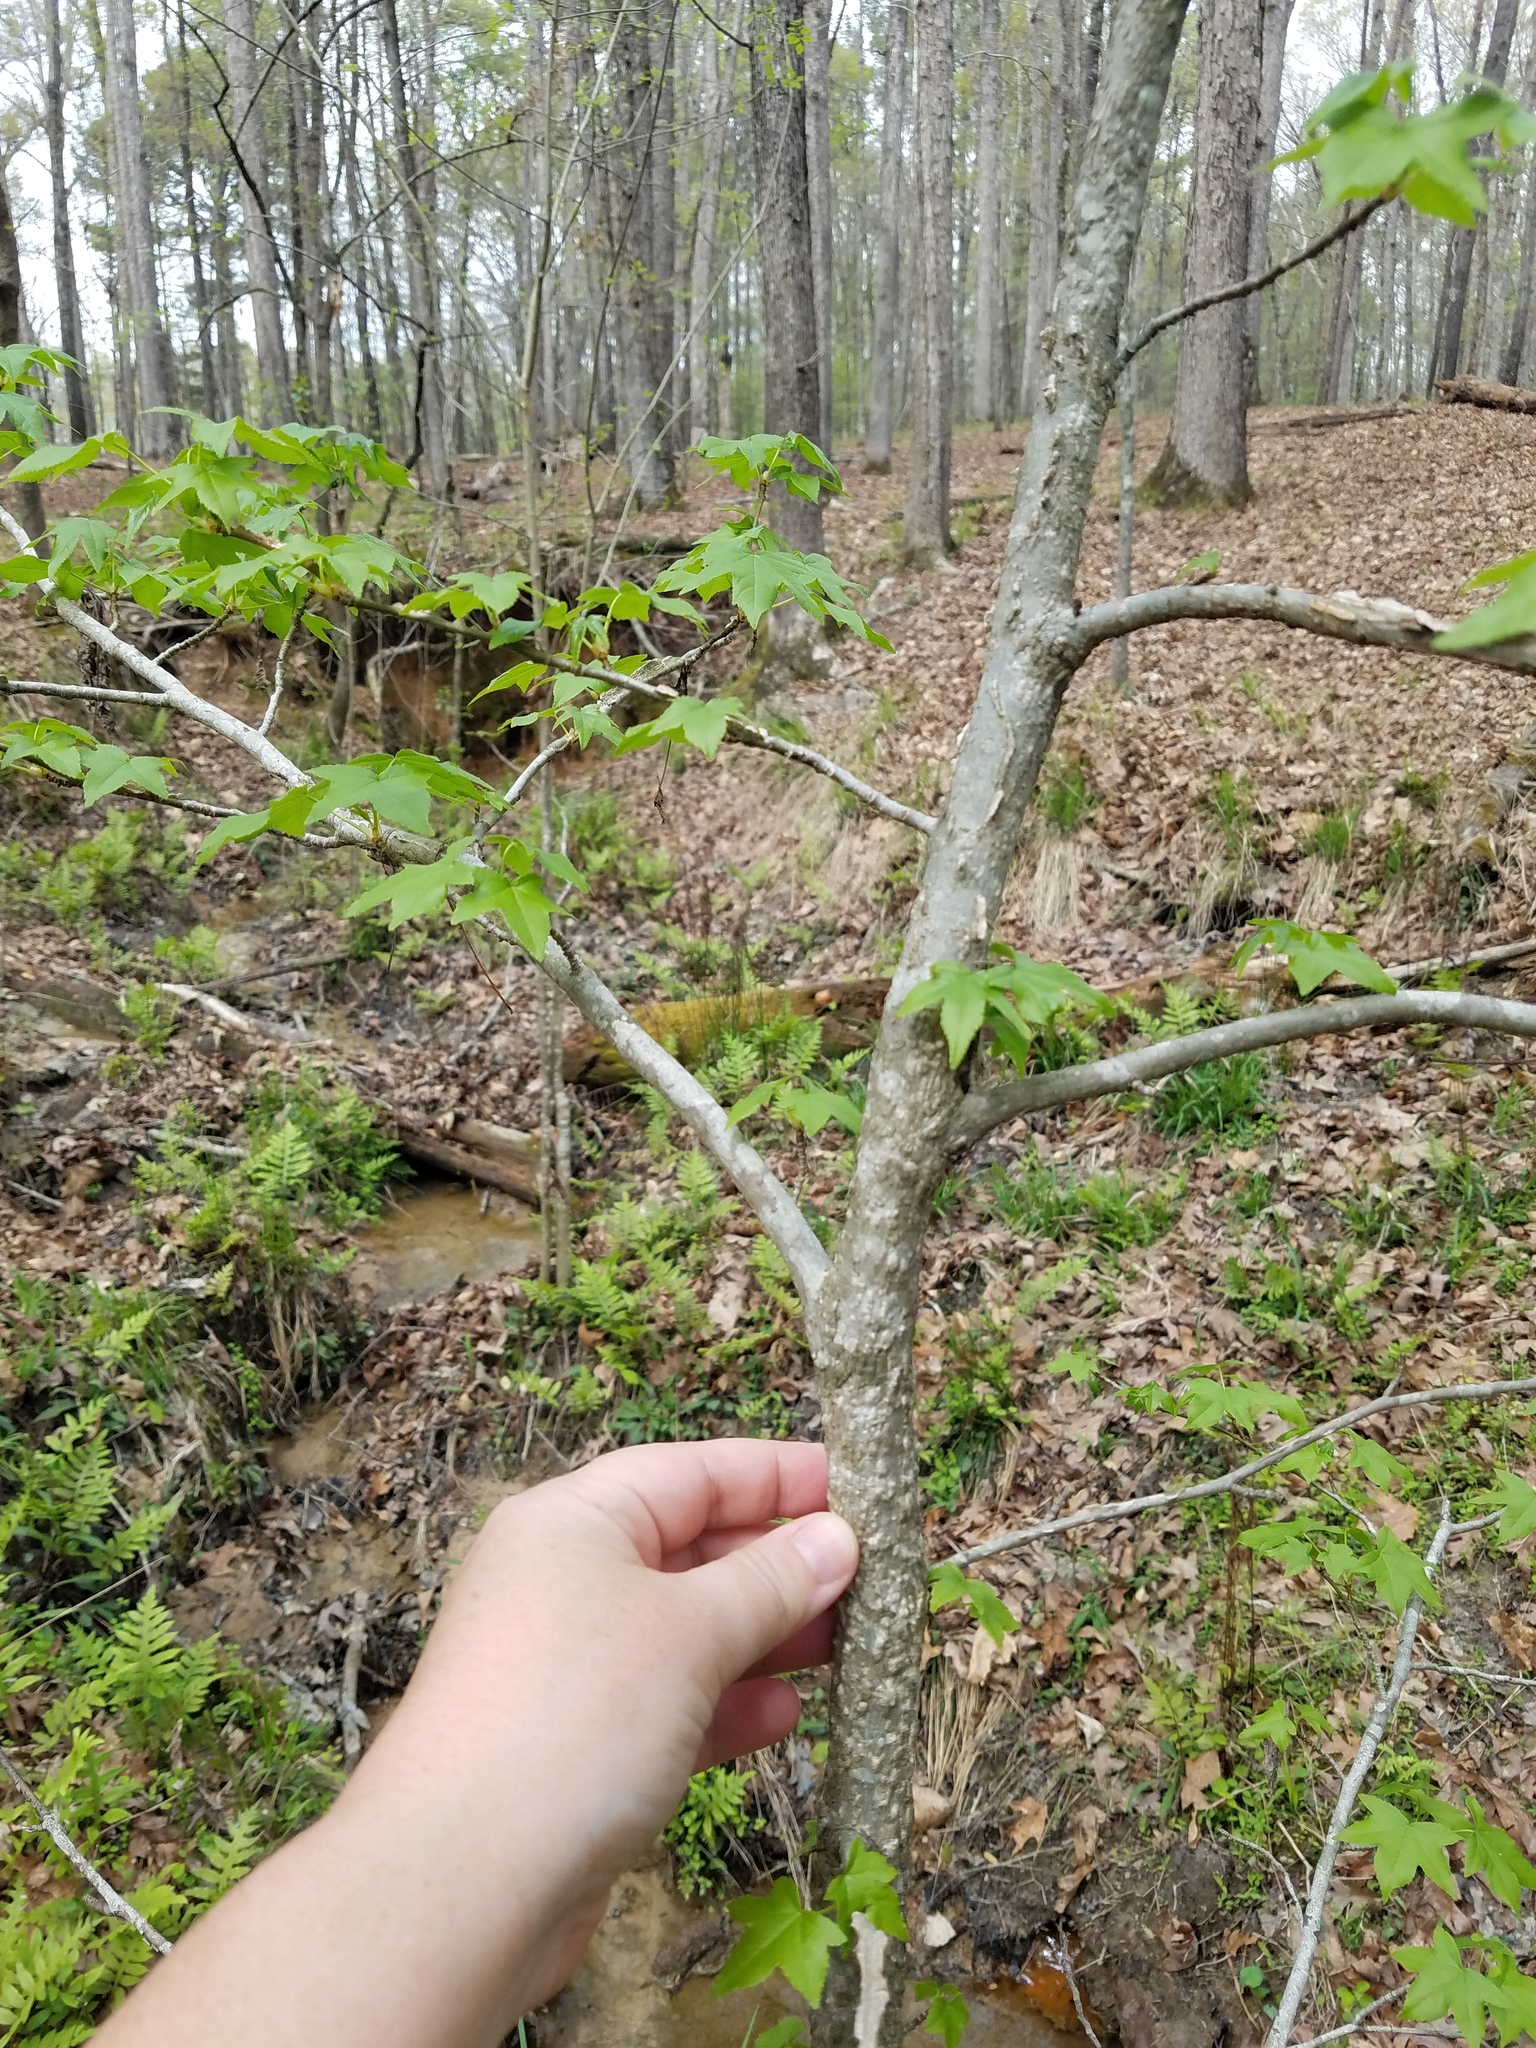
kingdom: Plantae
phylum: Tracheophyta
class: Magnoliopsida
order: Saxifragales
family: Altingiaceae
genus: Liquidambar
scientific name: Liquidambar styraciflua
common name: Sweet gum
